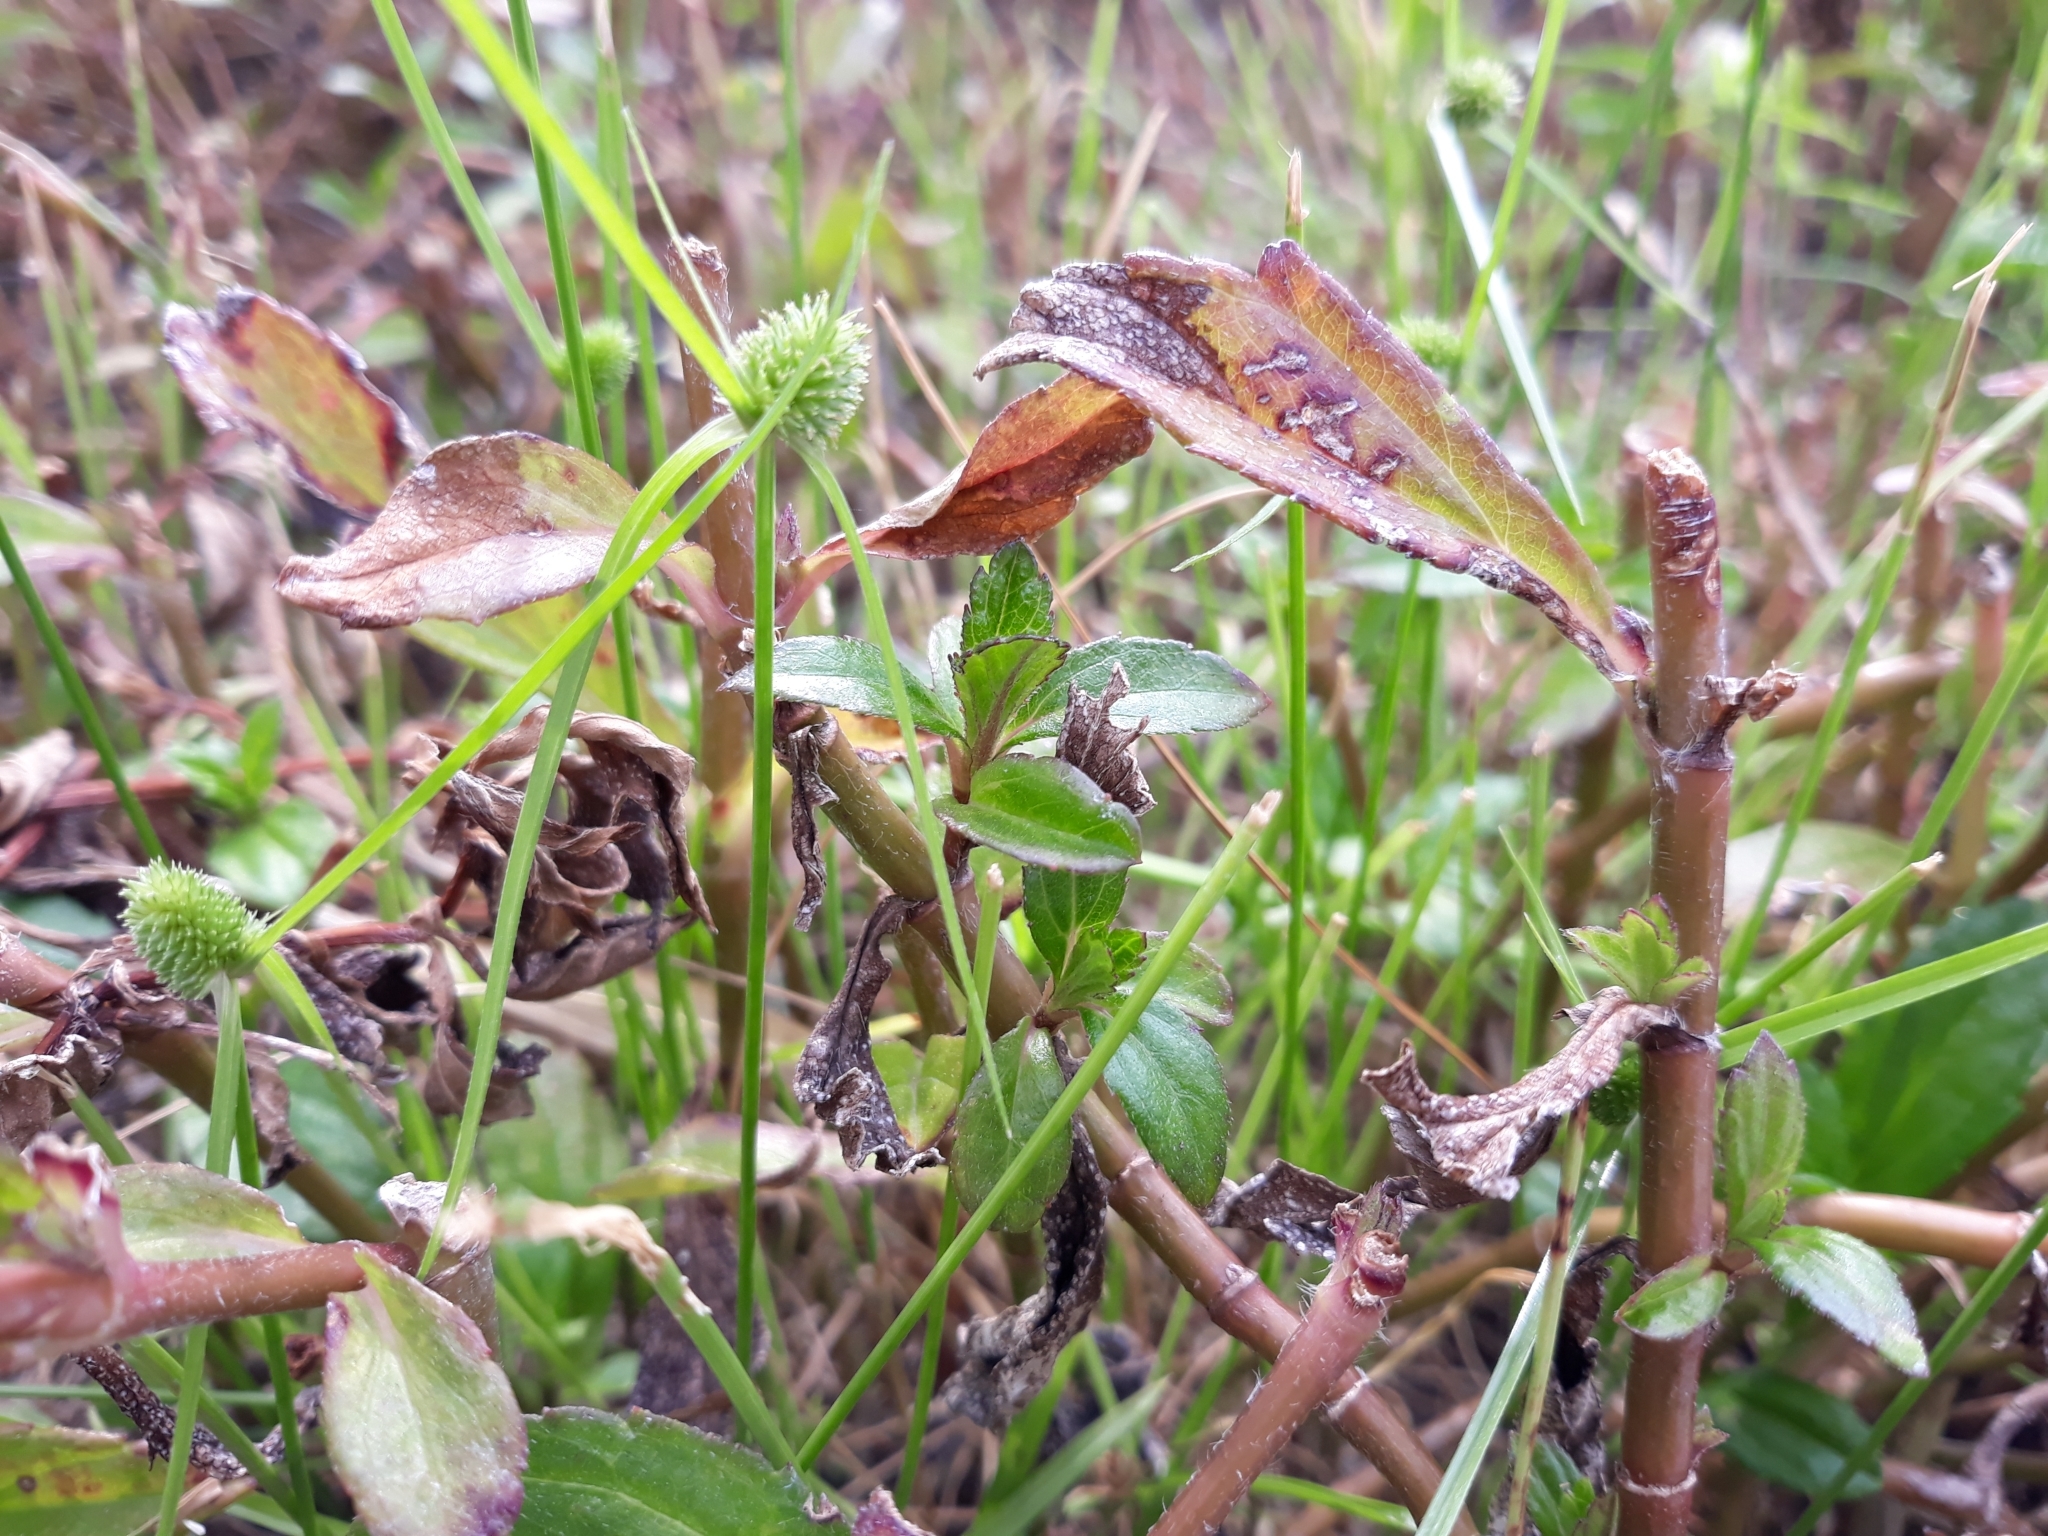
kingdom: Plantae
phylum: Tracheophyta
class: Liliopsida
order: Poales
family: Cyperaceae
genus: Cyperus
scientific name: Cyperus brevifolius
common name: Globe kyllinga
